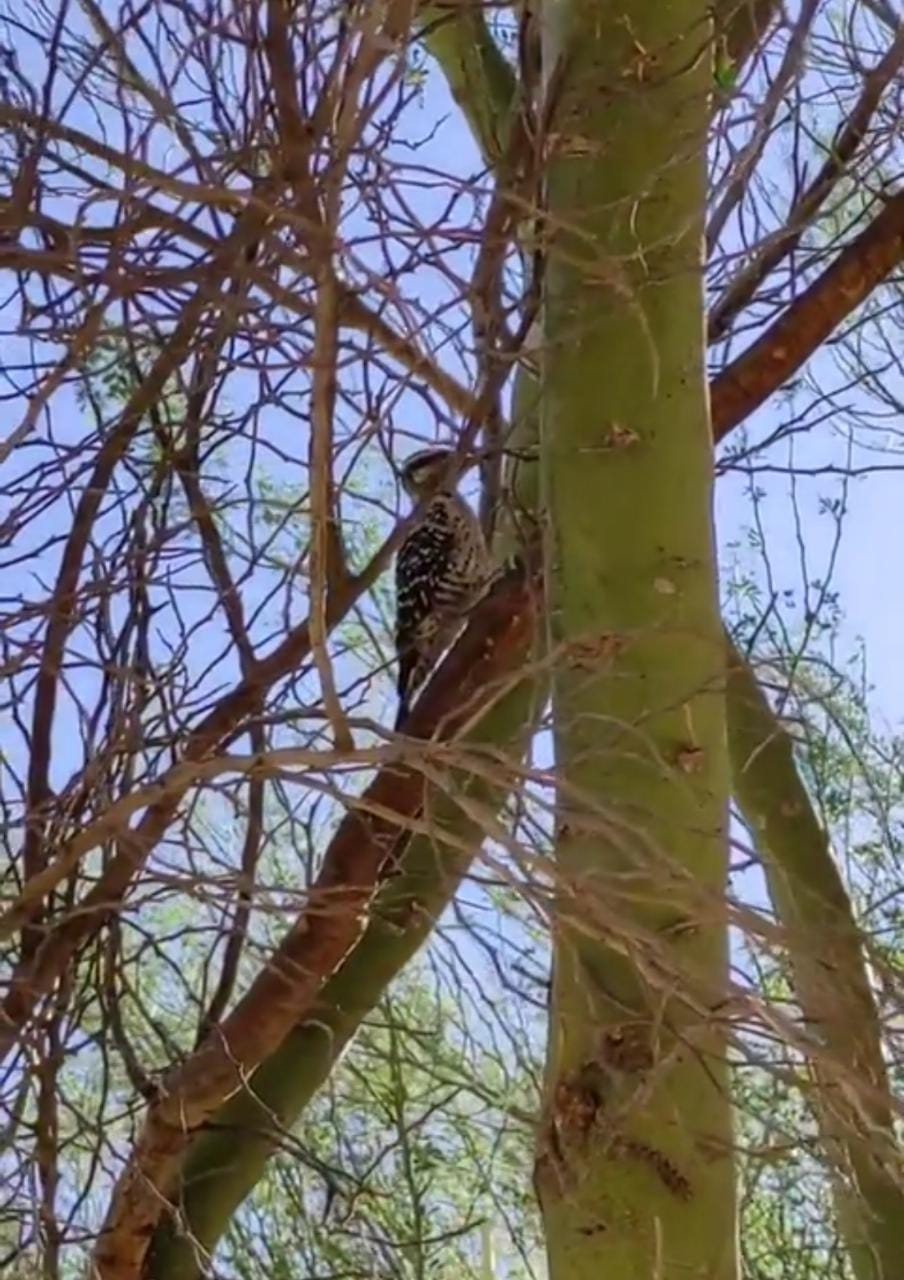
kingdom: Animalia
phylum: Chordata
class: Aves
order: Piciformes
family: Picidae
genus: Dryobates
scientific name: Dryobates scalaris
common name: Ladder-backed woodpecker
